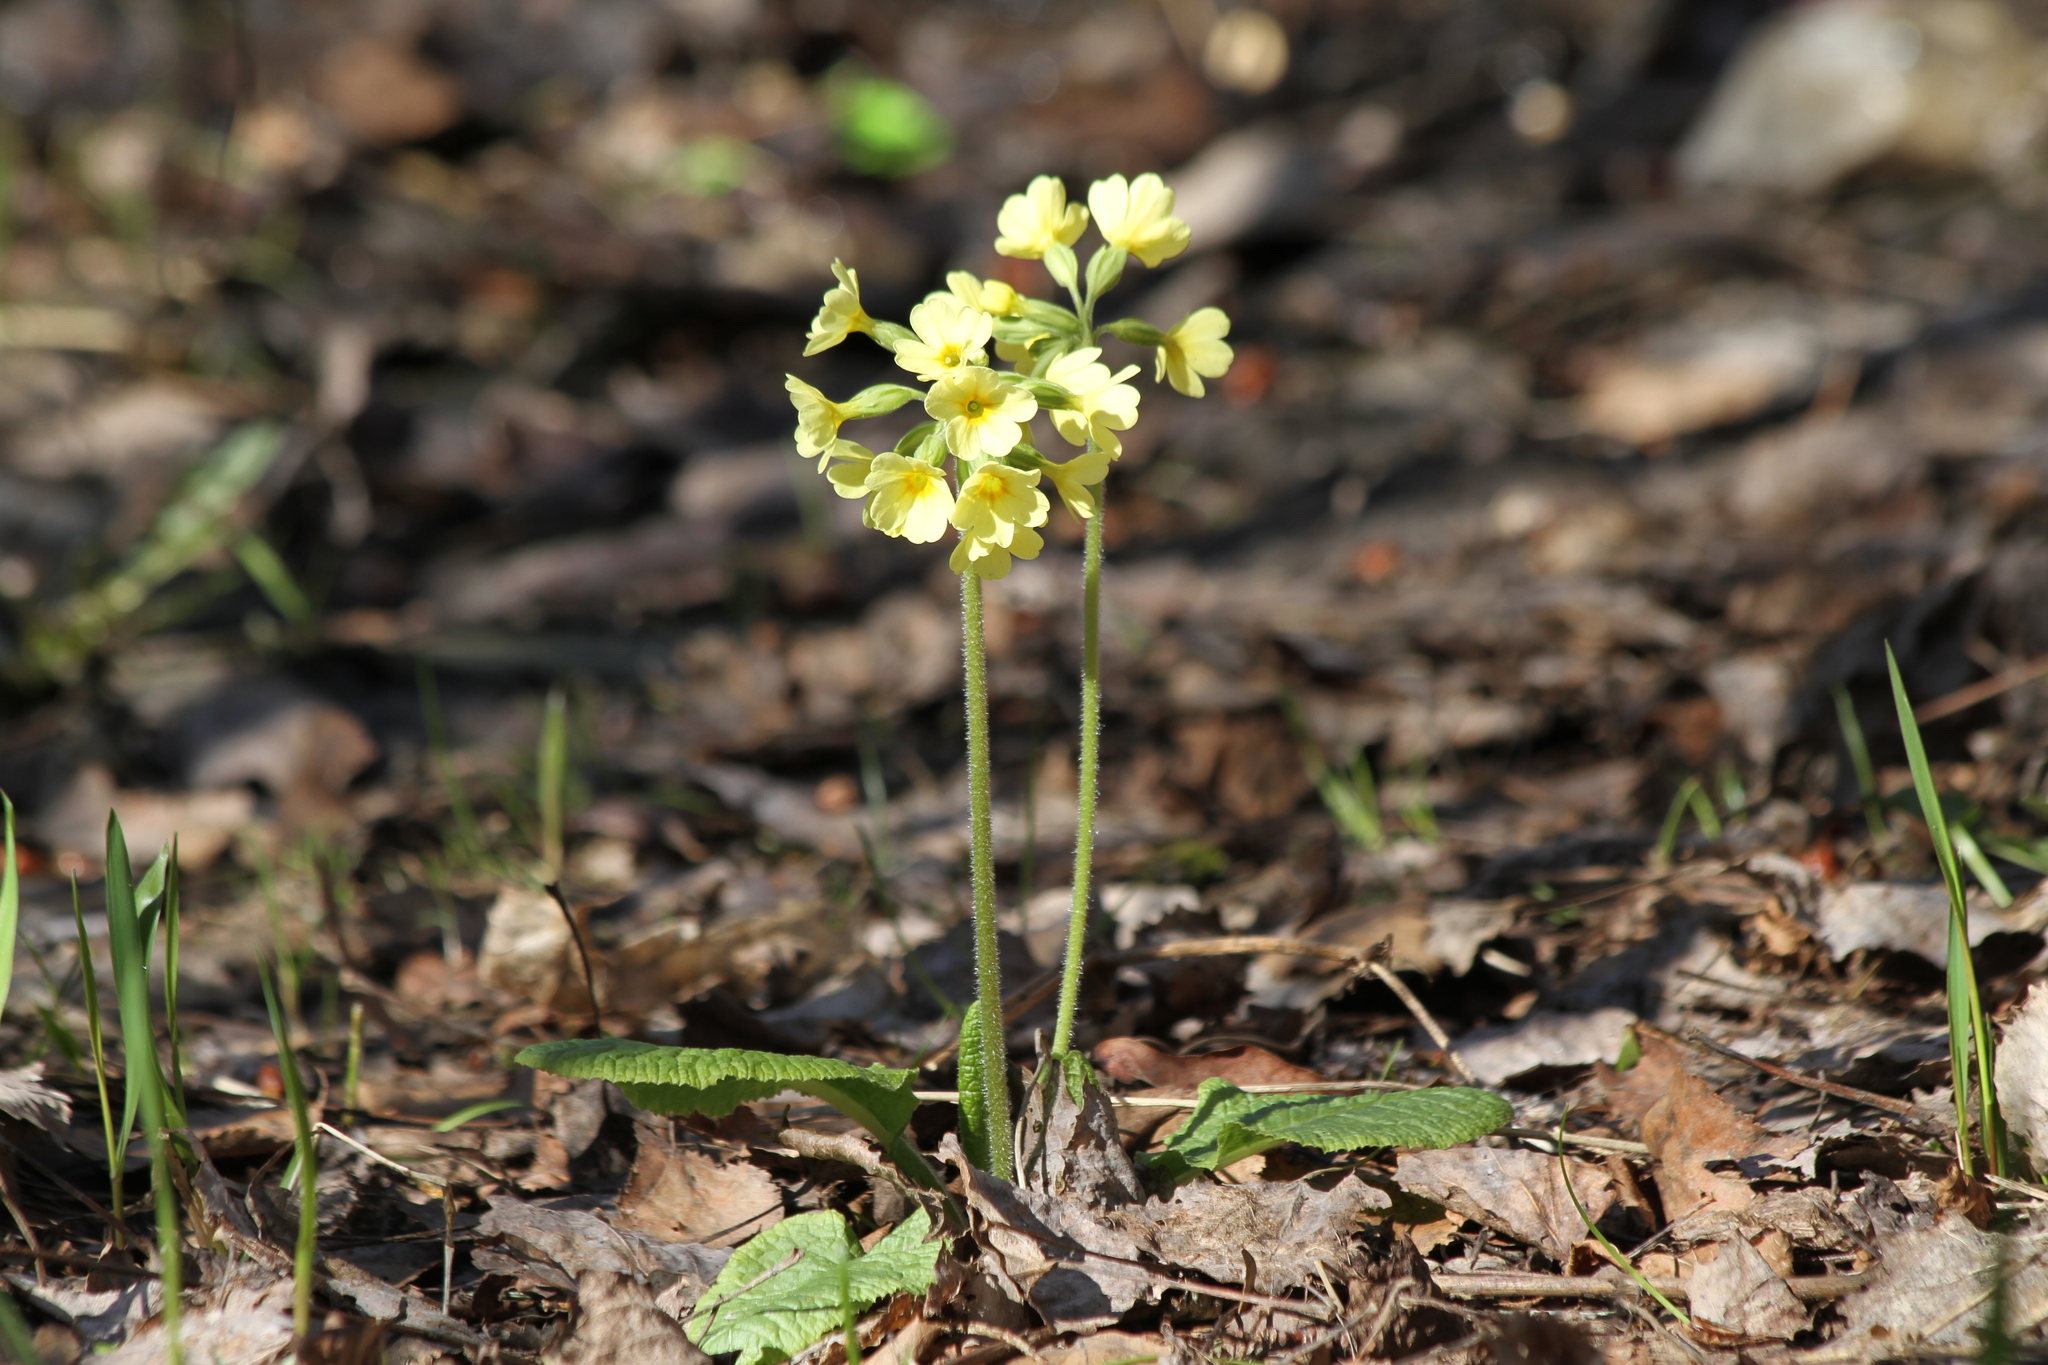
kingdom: Plantae
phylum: Tracheophyta
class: Magnoliopsida
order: Ericales
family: Primulaceae
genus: Primula
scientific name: Primula elatior
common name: Oxlip
